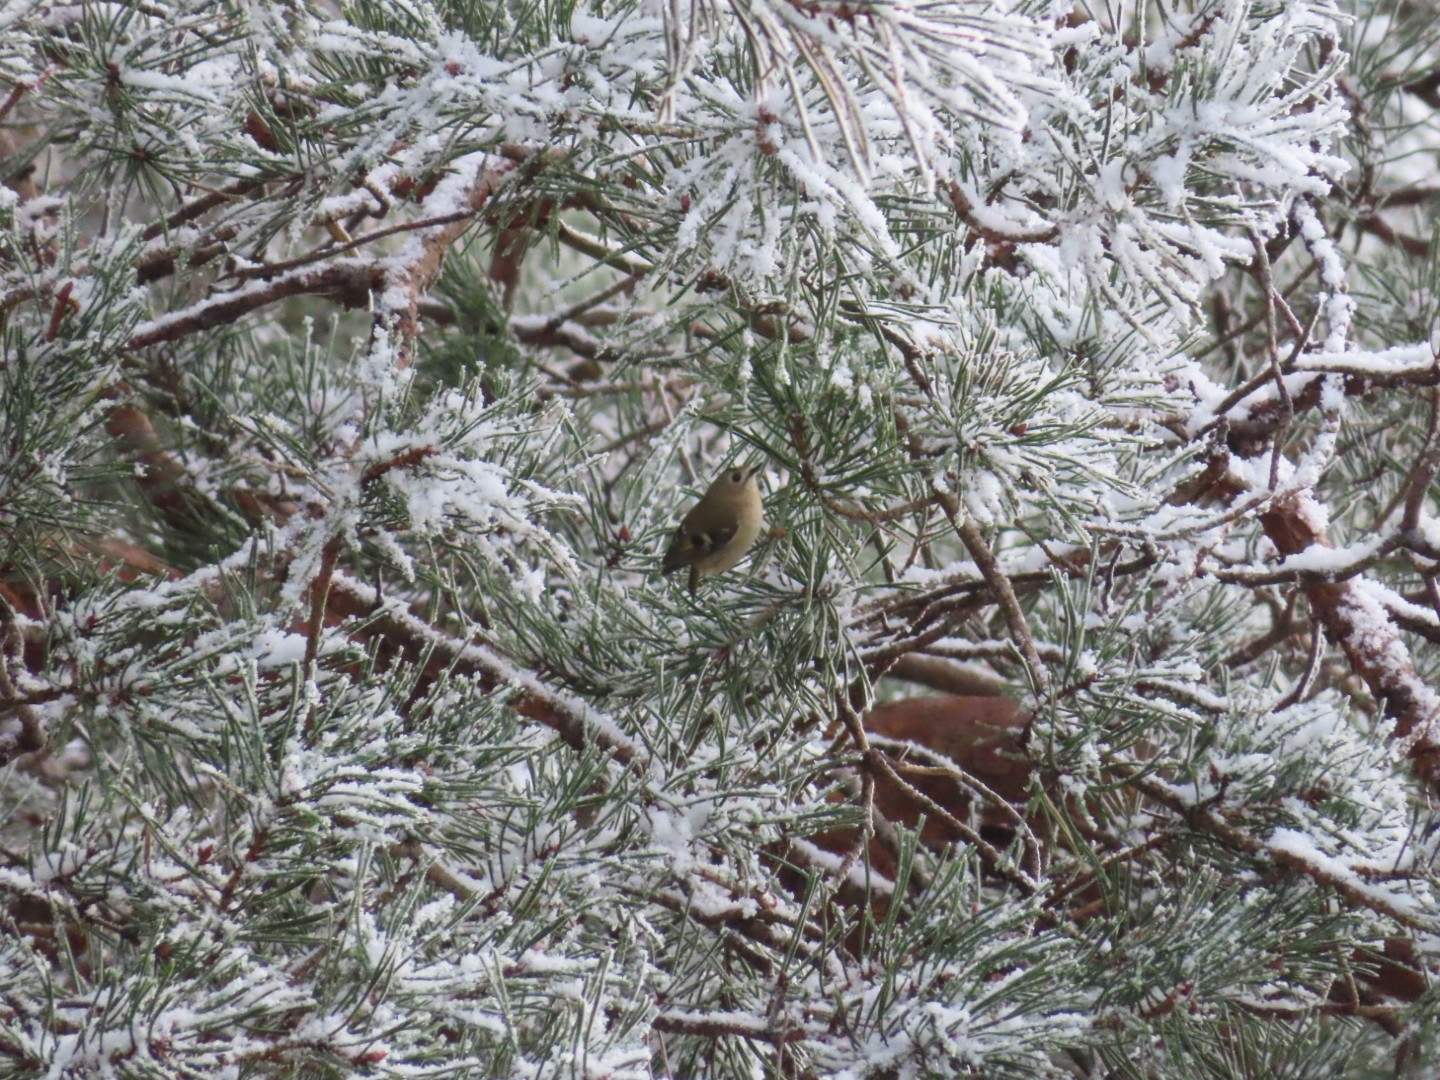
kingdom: Animalia
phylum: Chordata
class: Aves
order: Passeriformes
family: Regulidae
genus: Regulus
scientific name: Regulus regulus
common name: Goldcrest
